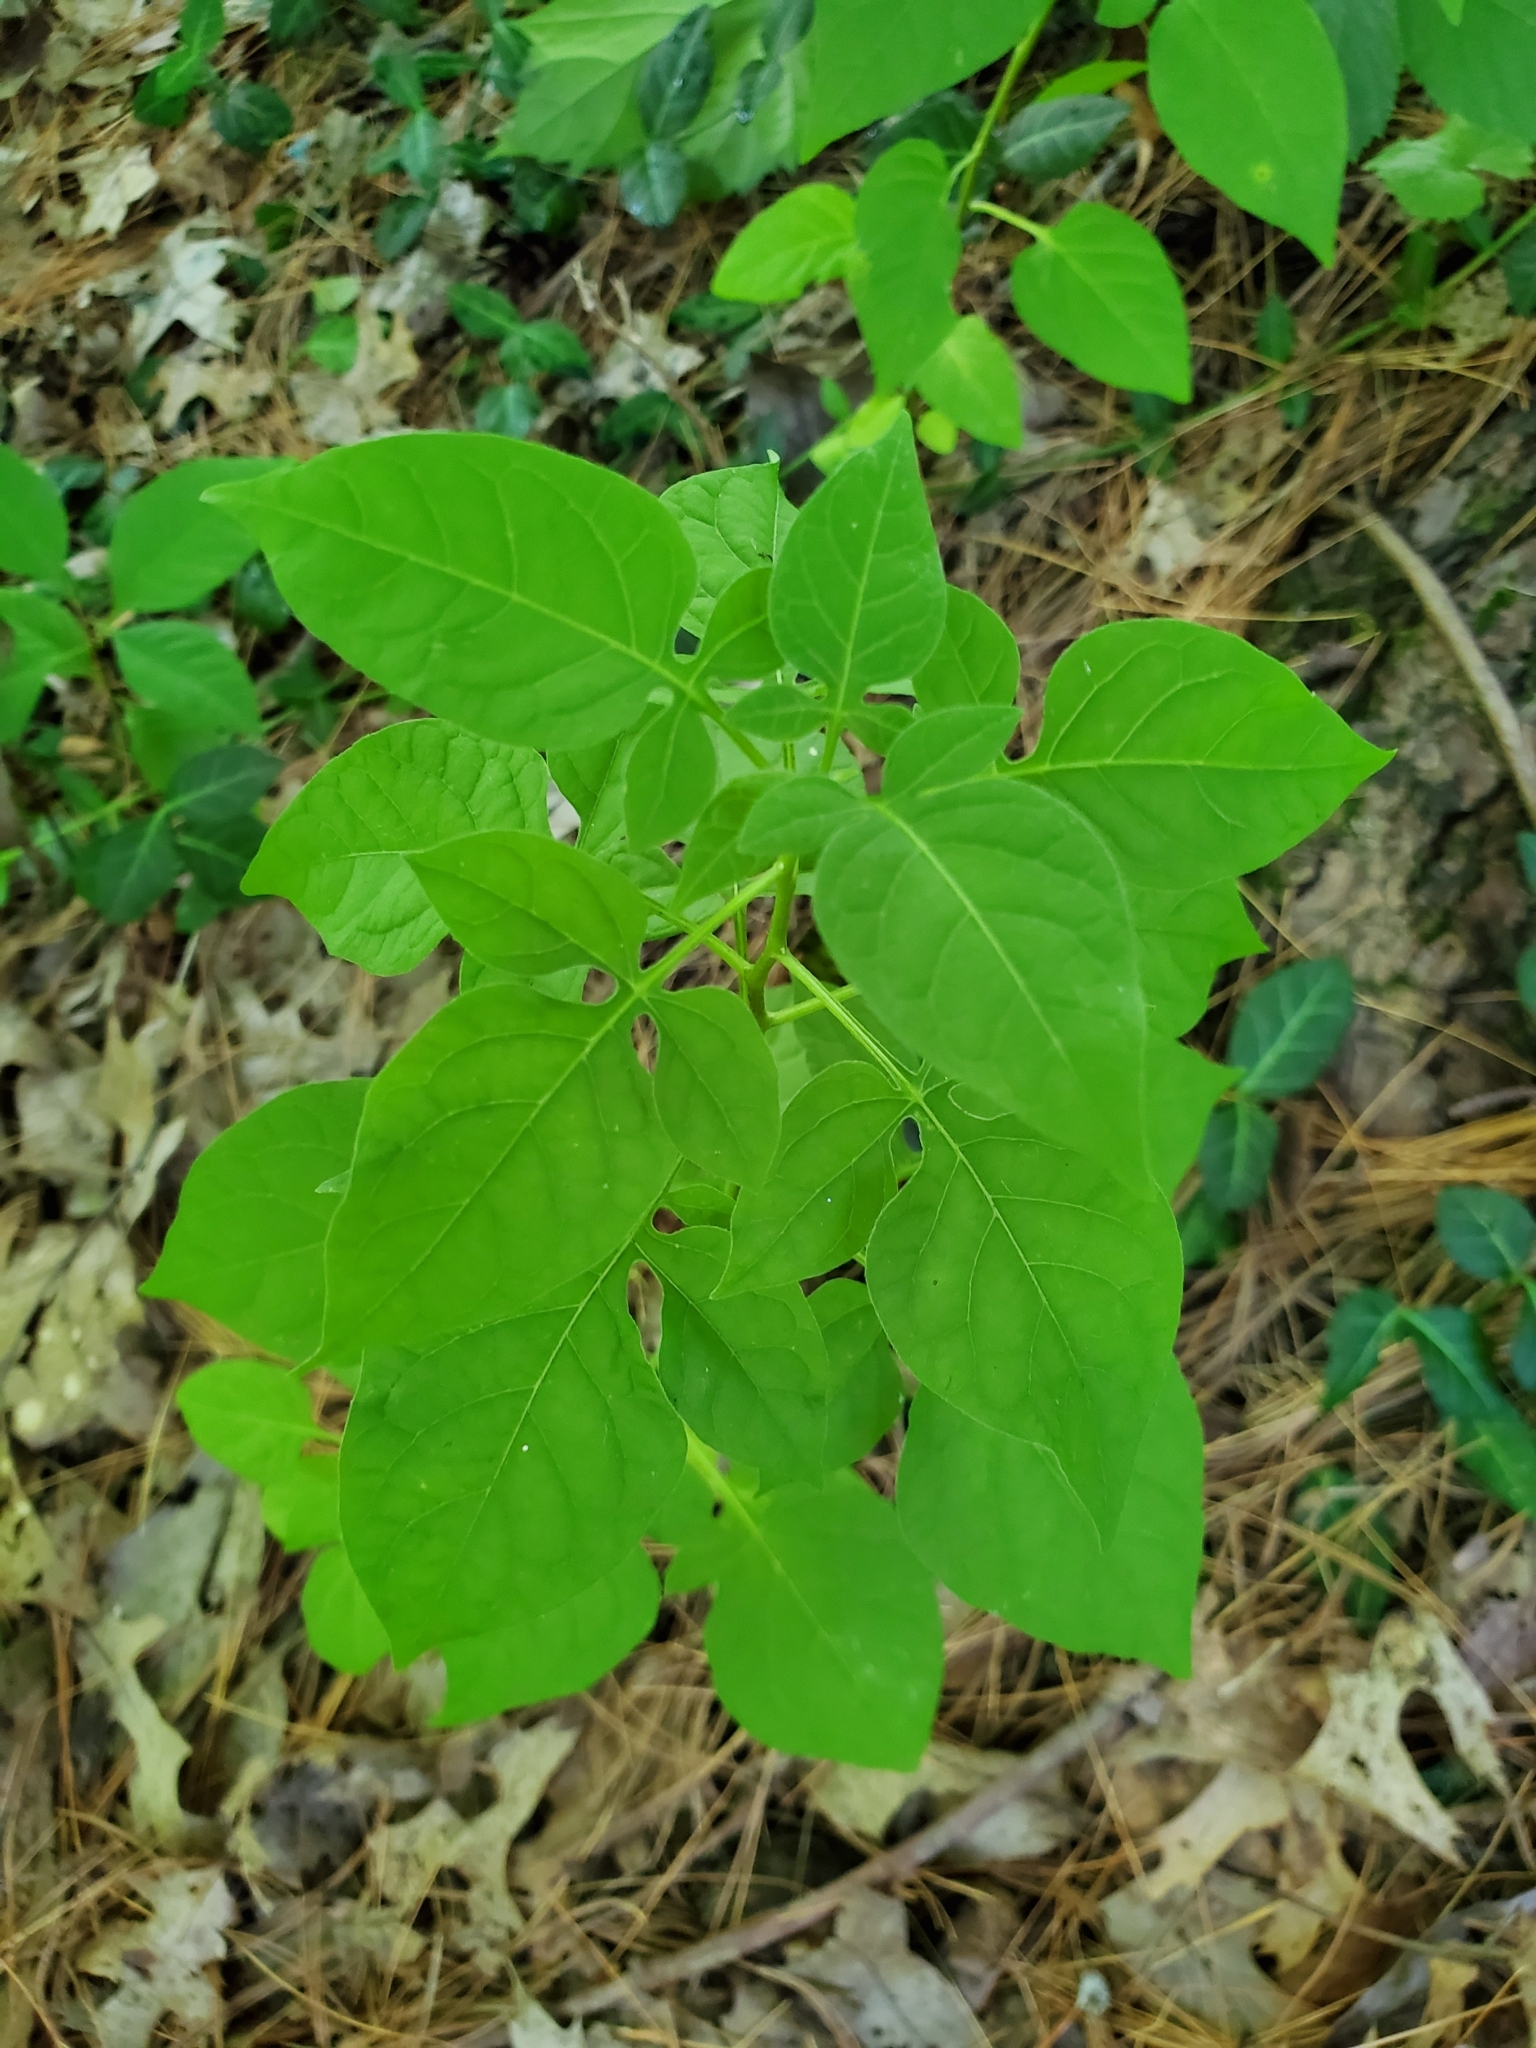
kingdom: Plantae
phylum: Tracheophyta
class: Magnoliopsida
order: Solanales
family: Solanaceae
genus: Solanum
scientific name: Solanum dulcamara
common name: Climbing nightshade
